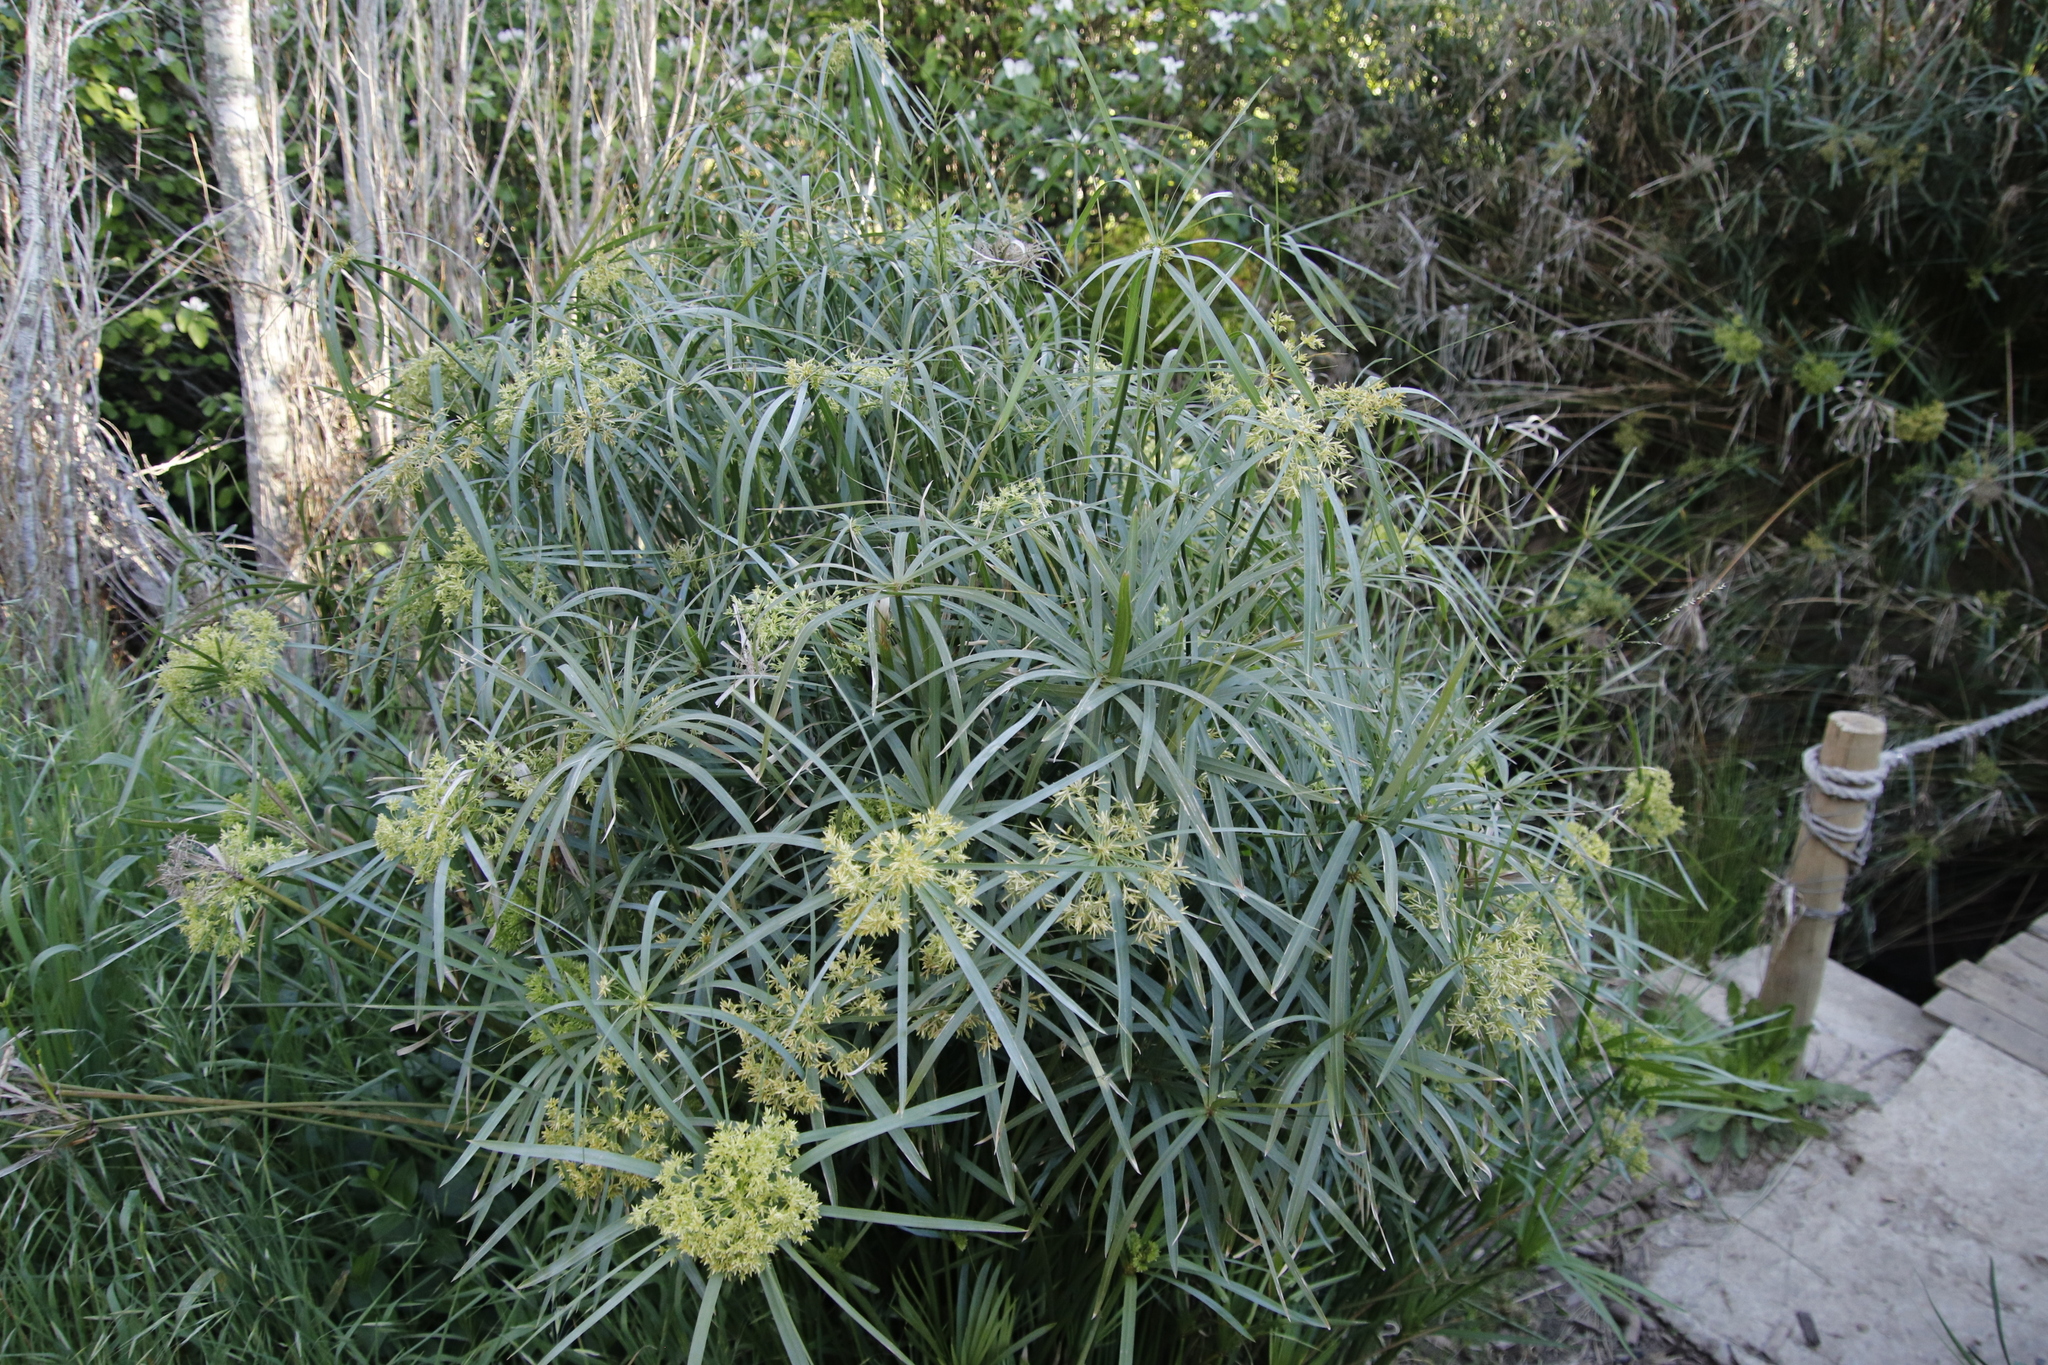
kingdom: Plantae
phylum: Tracheophyta
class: Liliopsida
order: Poales
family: Cyperaceae
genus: Cyperus
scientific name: Cyperus textilis
